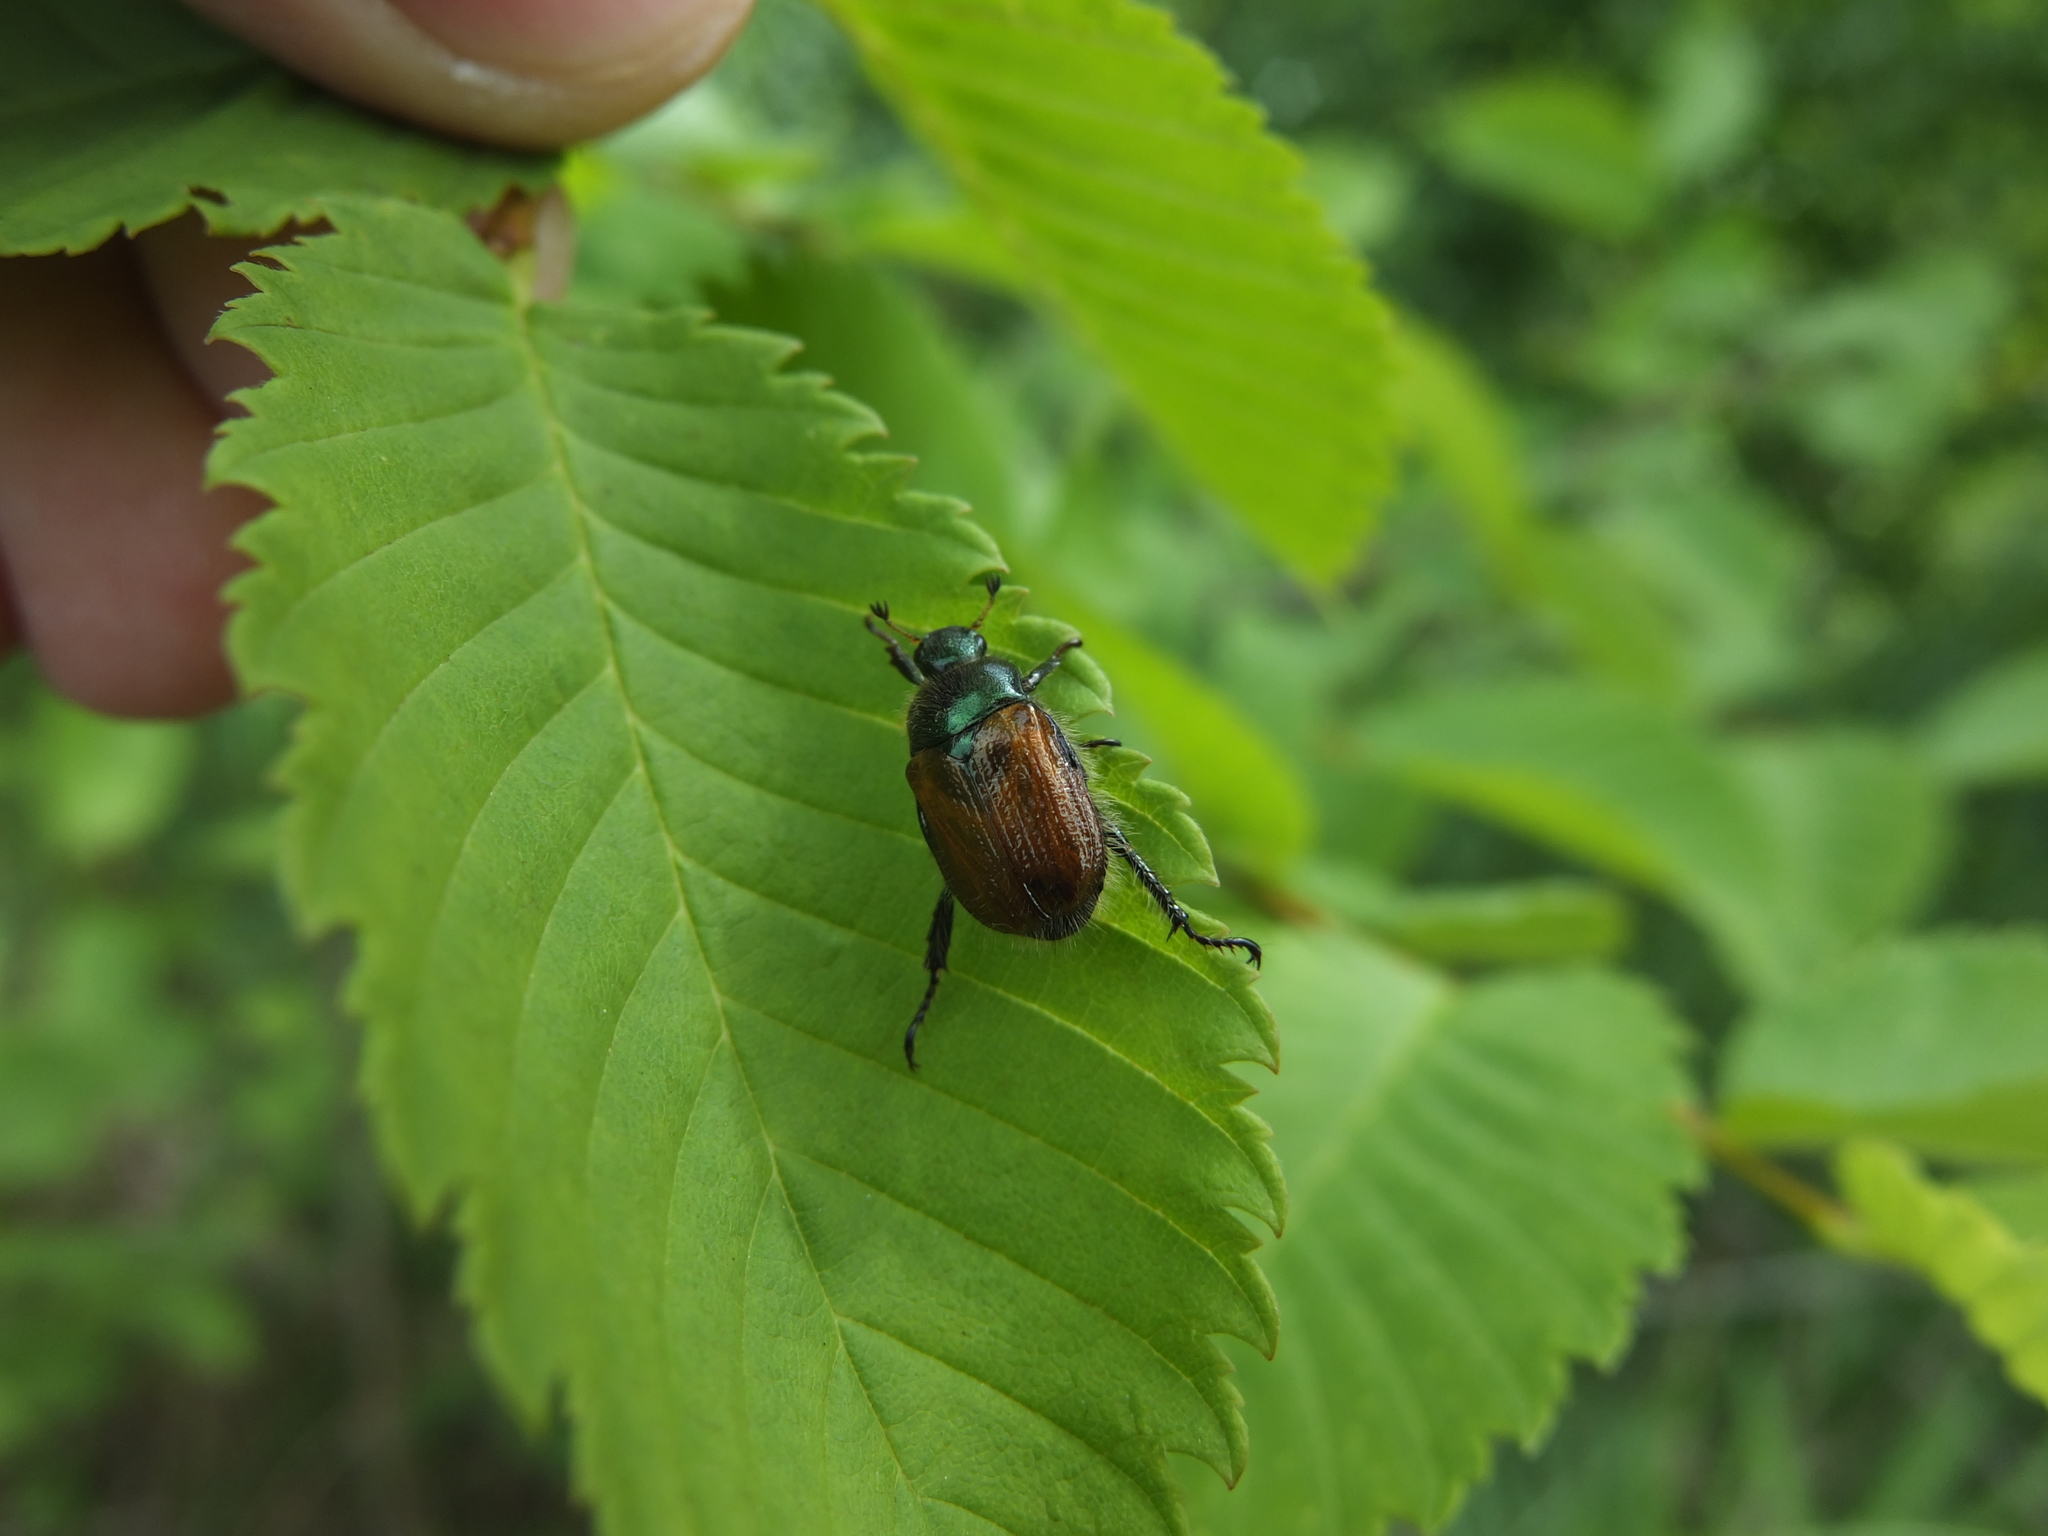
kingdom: Animalia
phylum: Arthropoda
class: Insecta
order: Coleoptera
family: Scarabaeidae
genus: Phyllopertha
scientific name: Phyllopertha horticola
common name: Garden chafer
